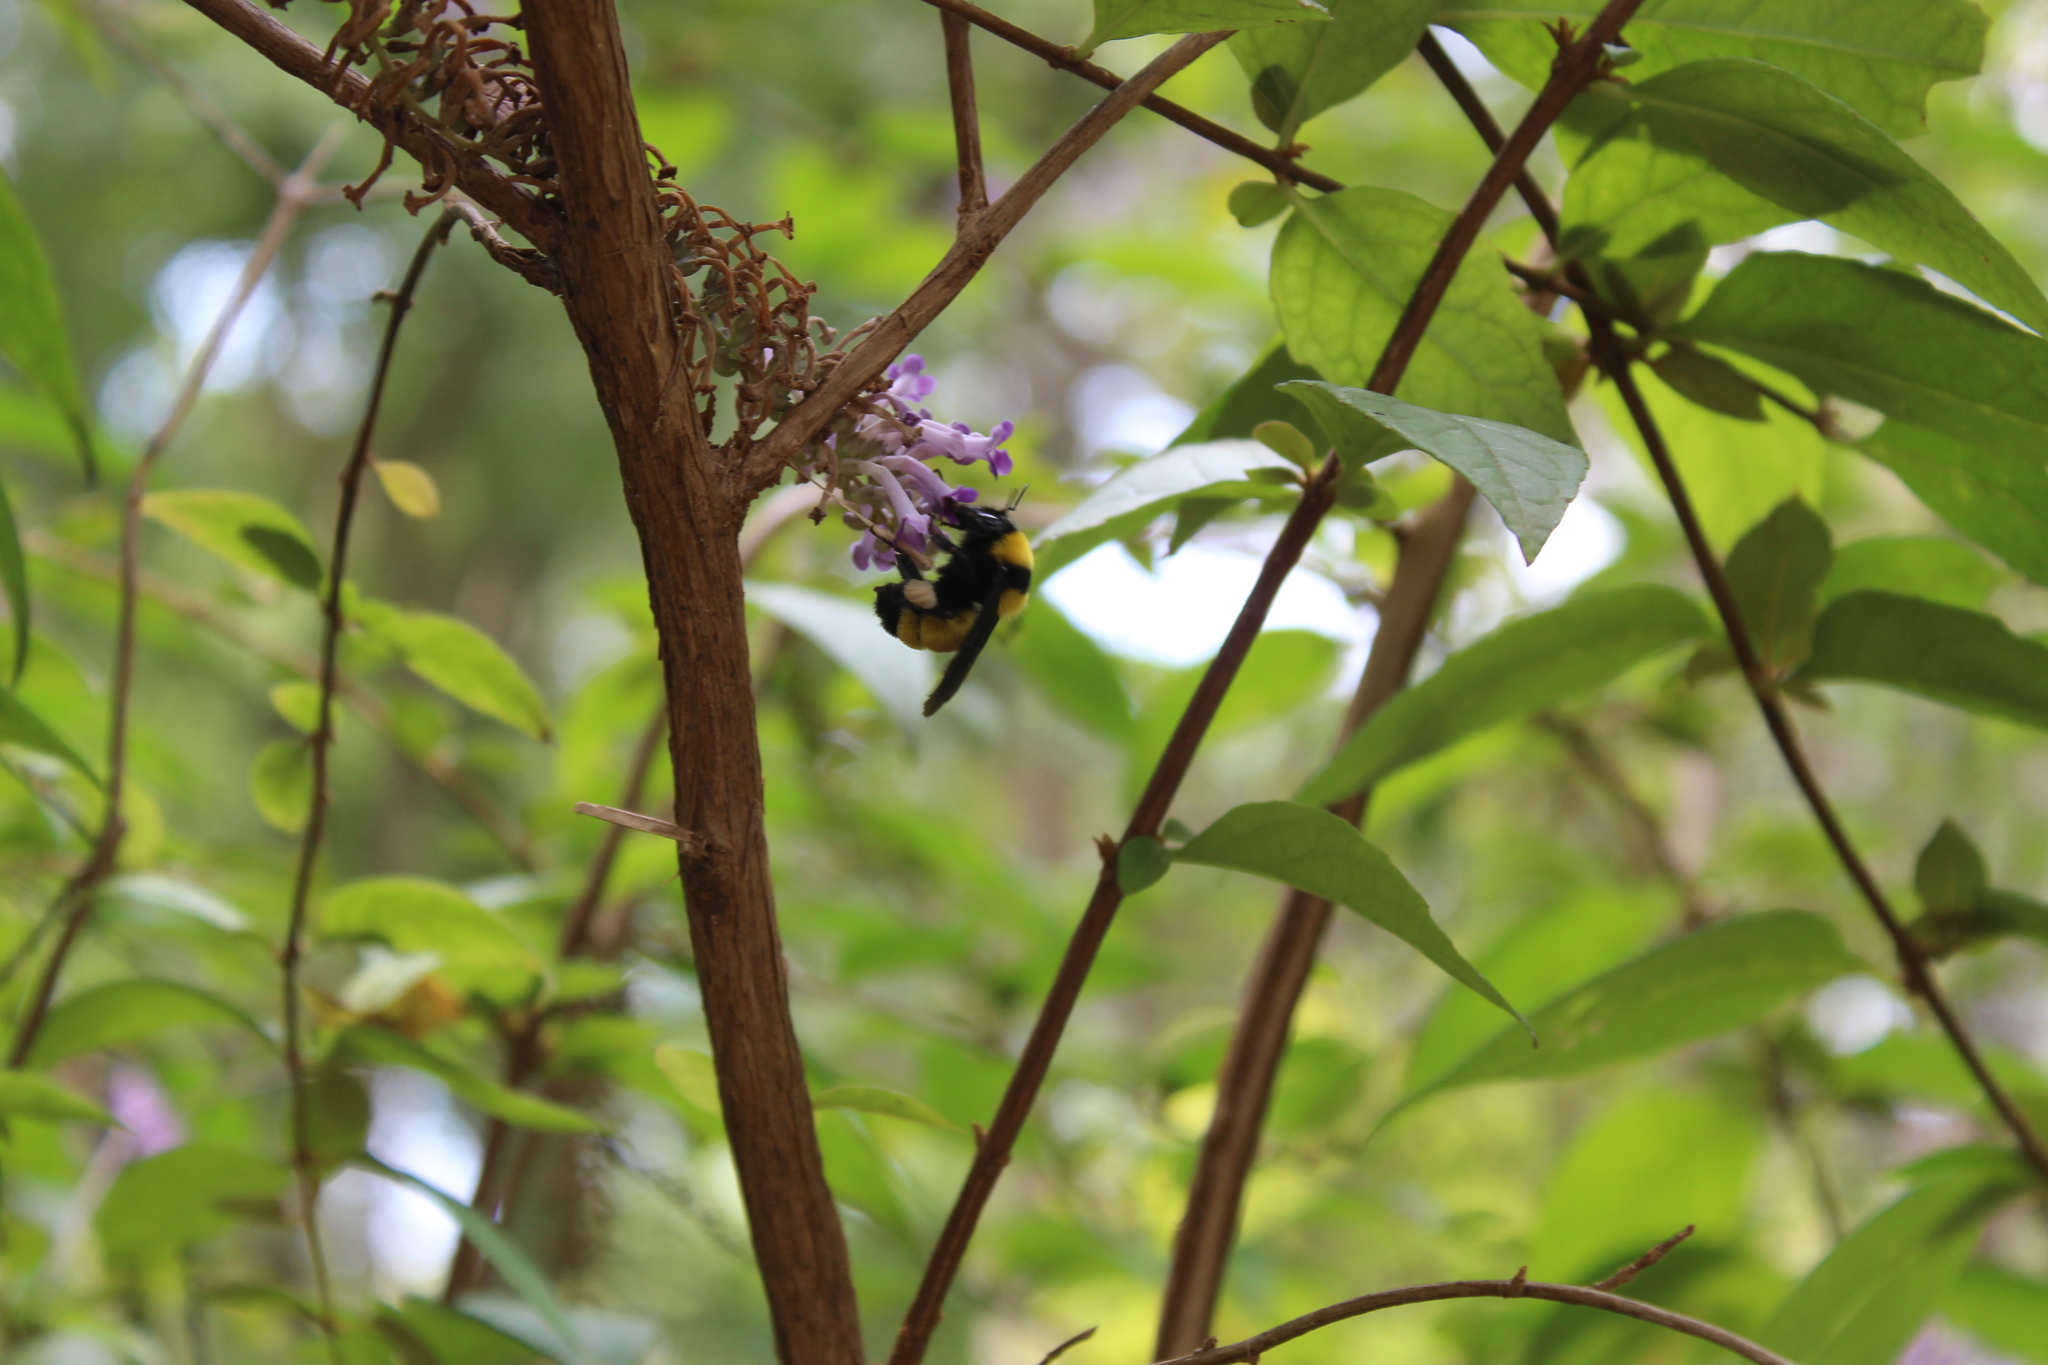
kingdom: Animalia
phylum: Arthropoda
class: Insecta
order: Hymenoptera
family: Apidae
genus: Bombus
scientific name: Bombus sonorus
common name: Sonoran bumble bee
